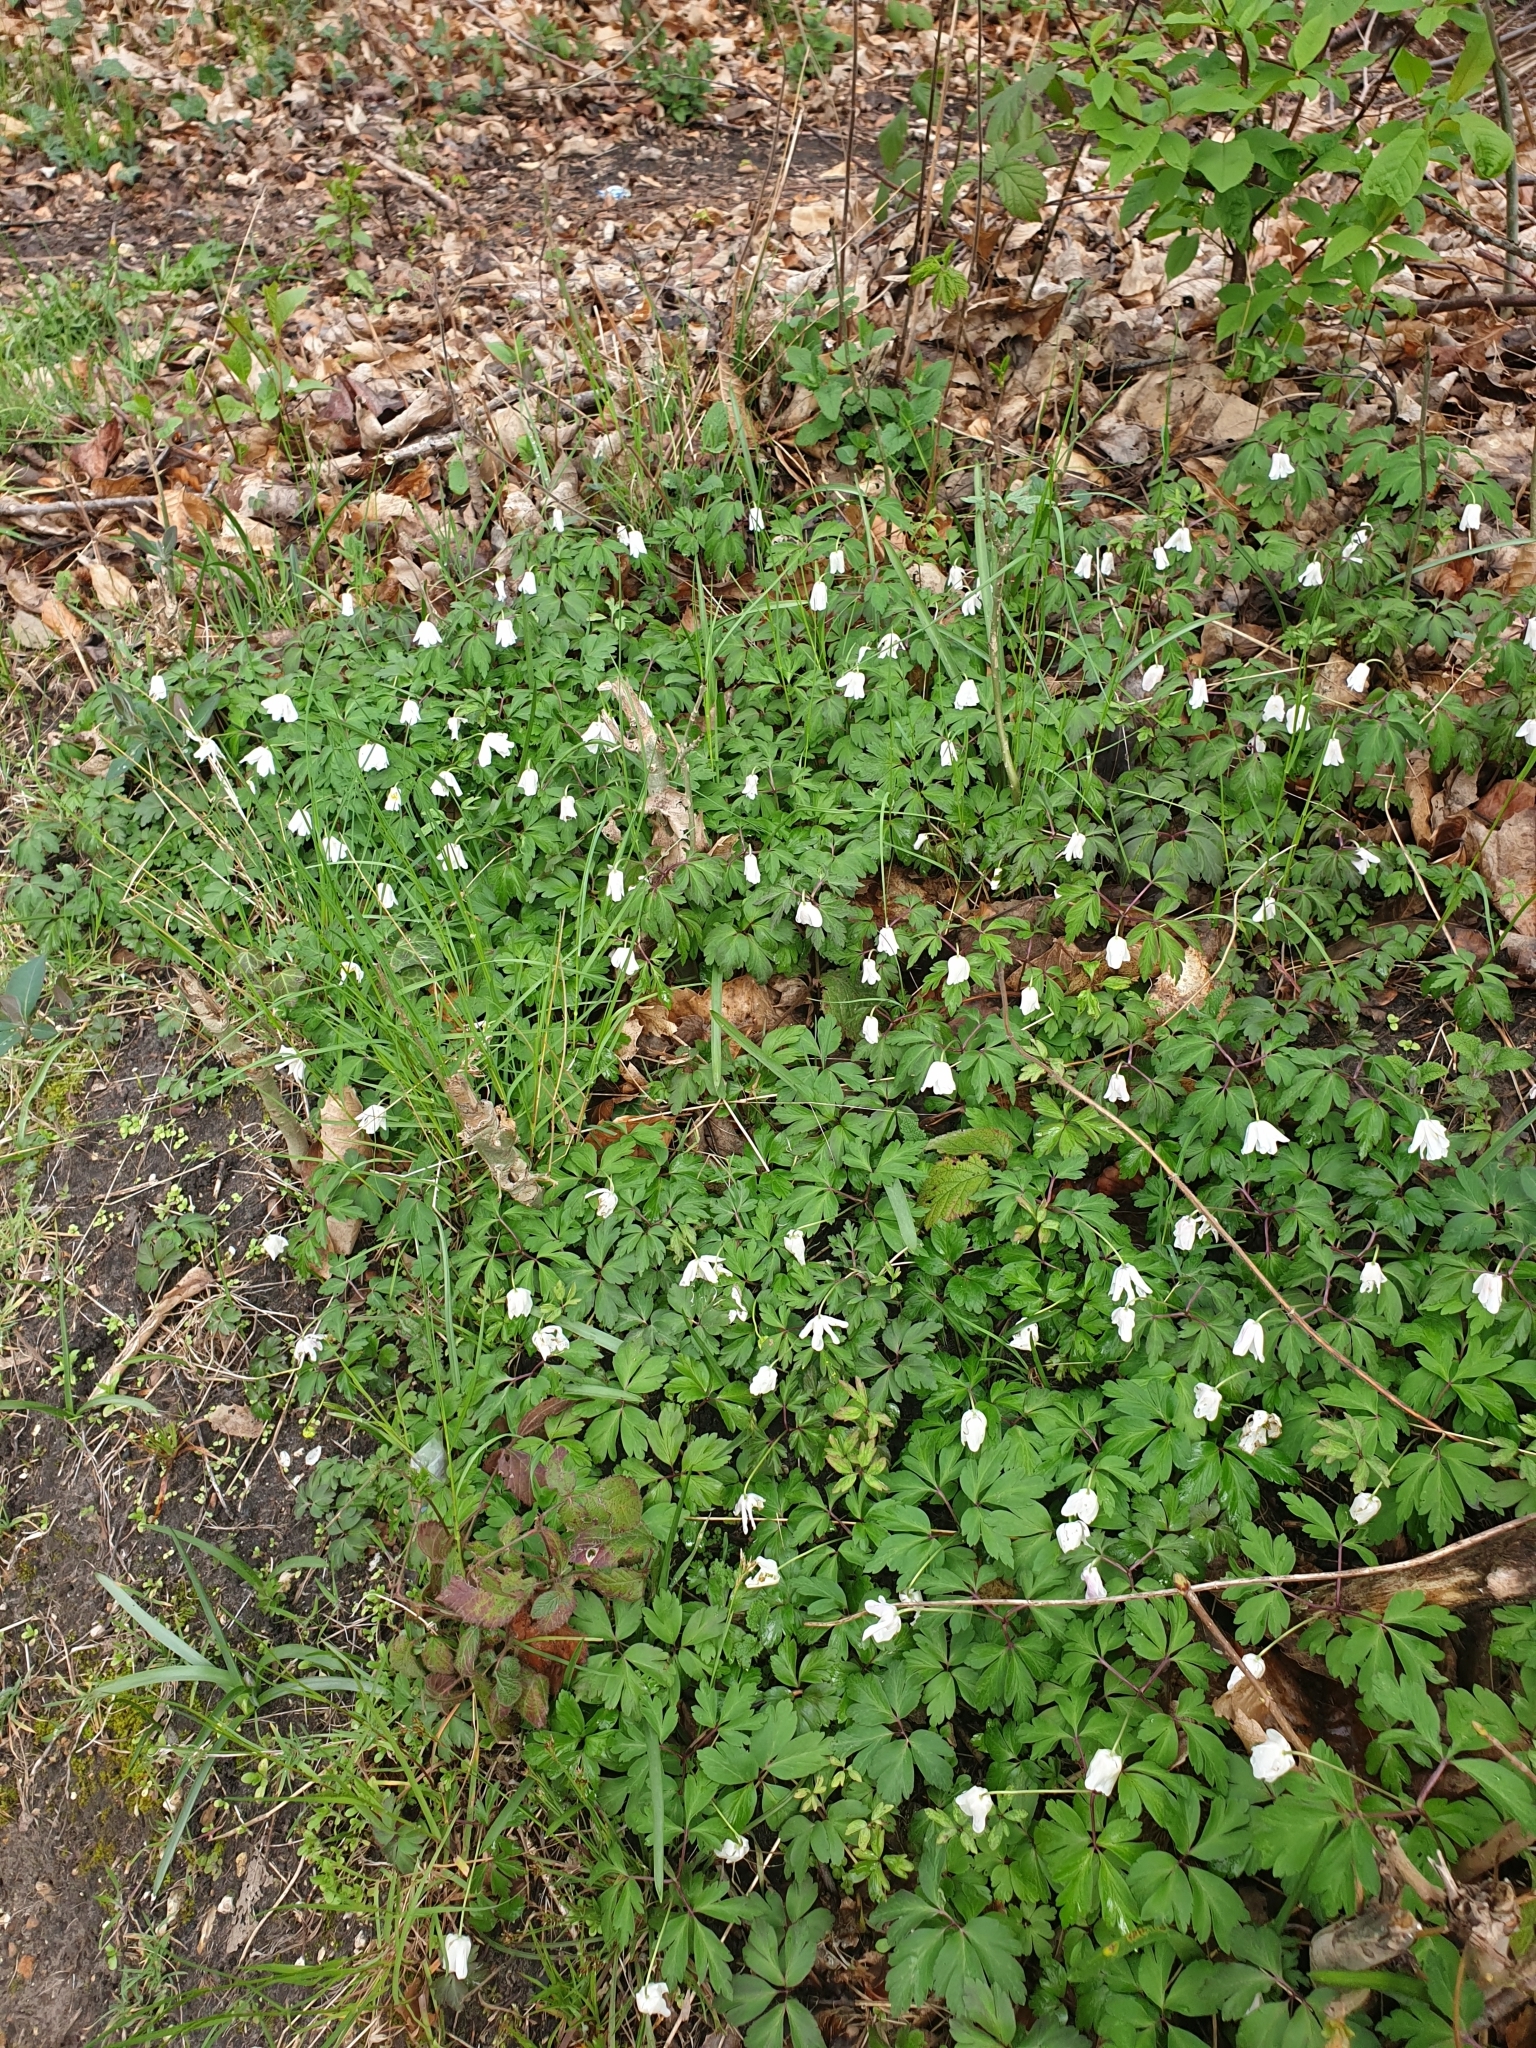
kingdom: Plantae
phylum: Tracheophyta
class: Magnoliopsida
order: Ranunculales
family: Ranunculaceae
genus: Anemone
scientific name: Anemone nemorosa
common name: Wood anemone
